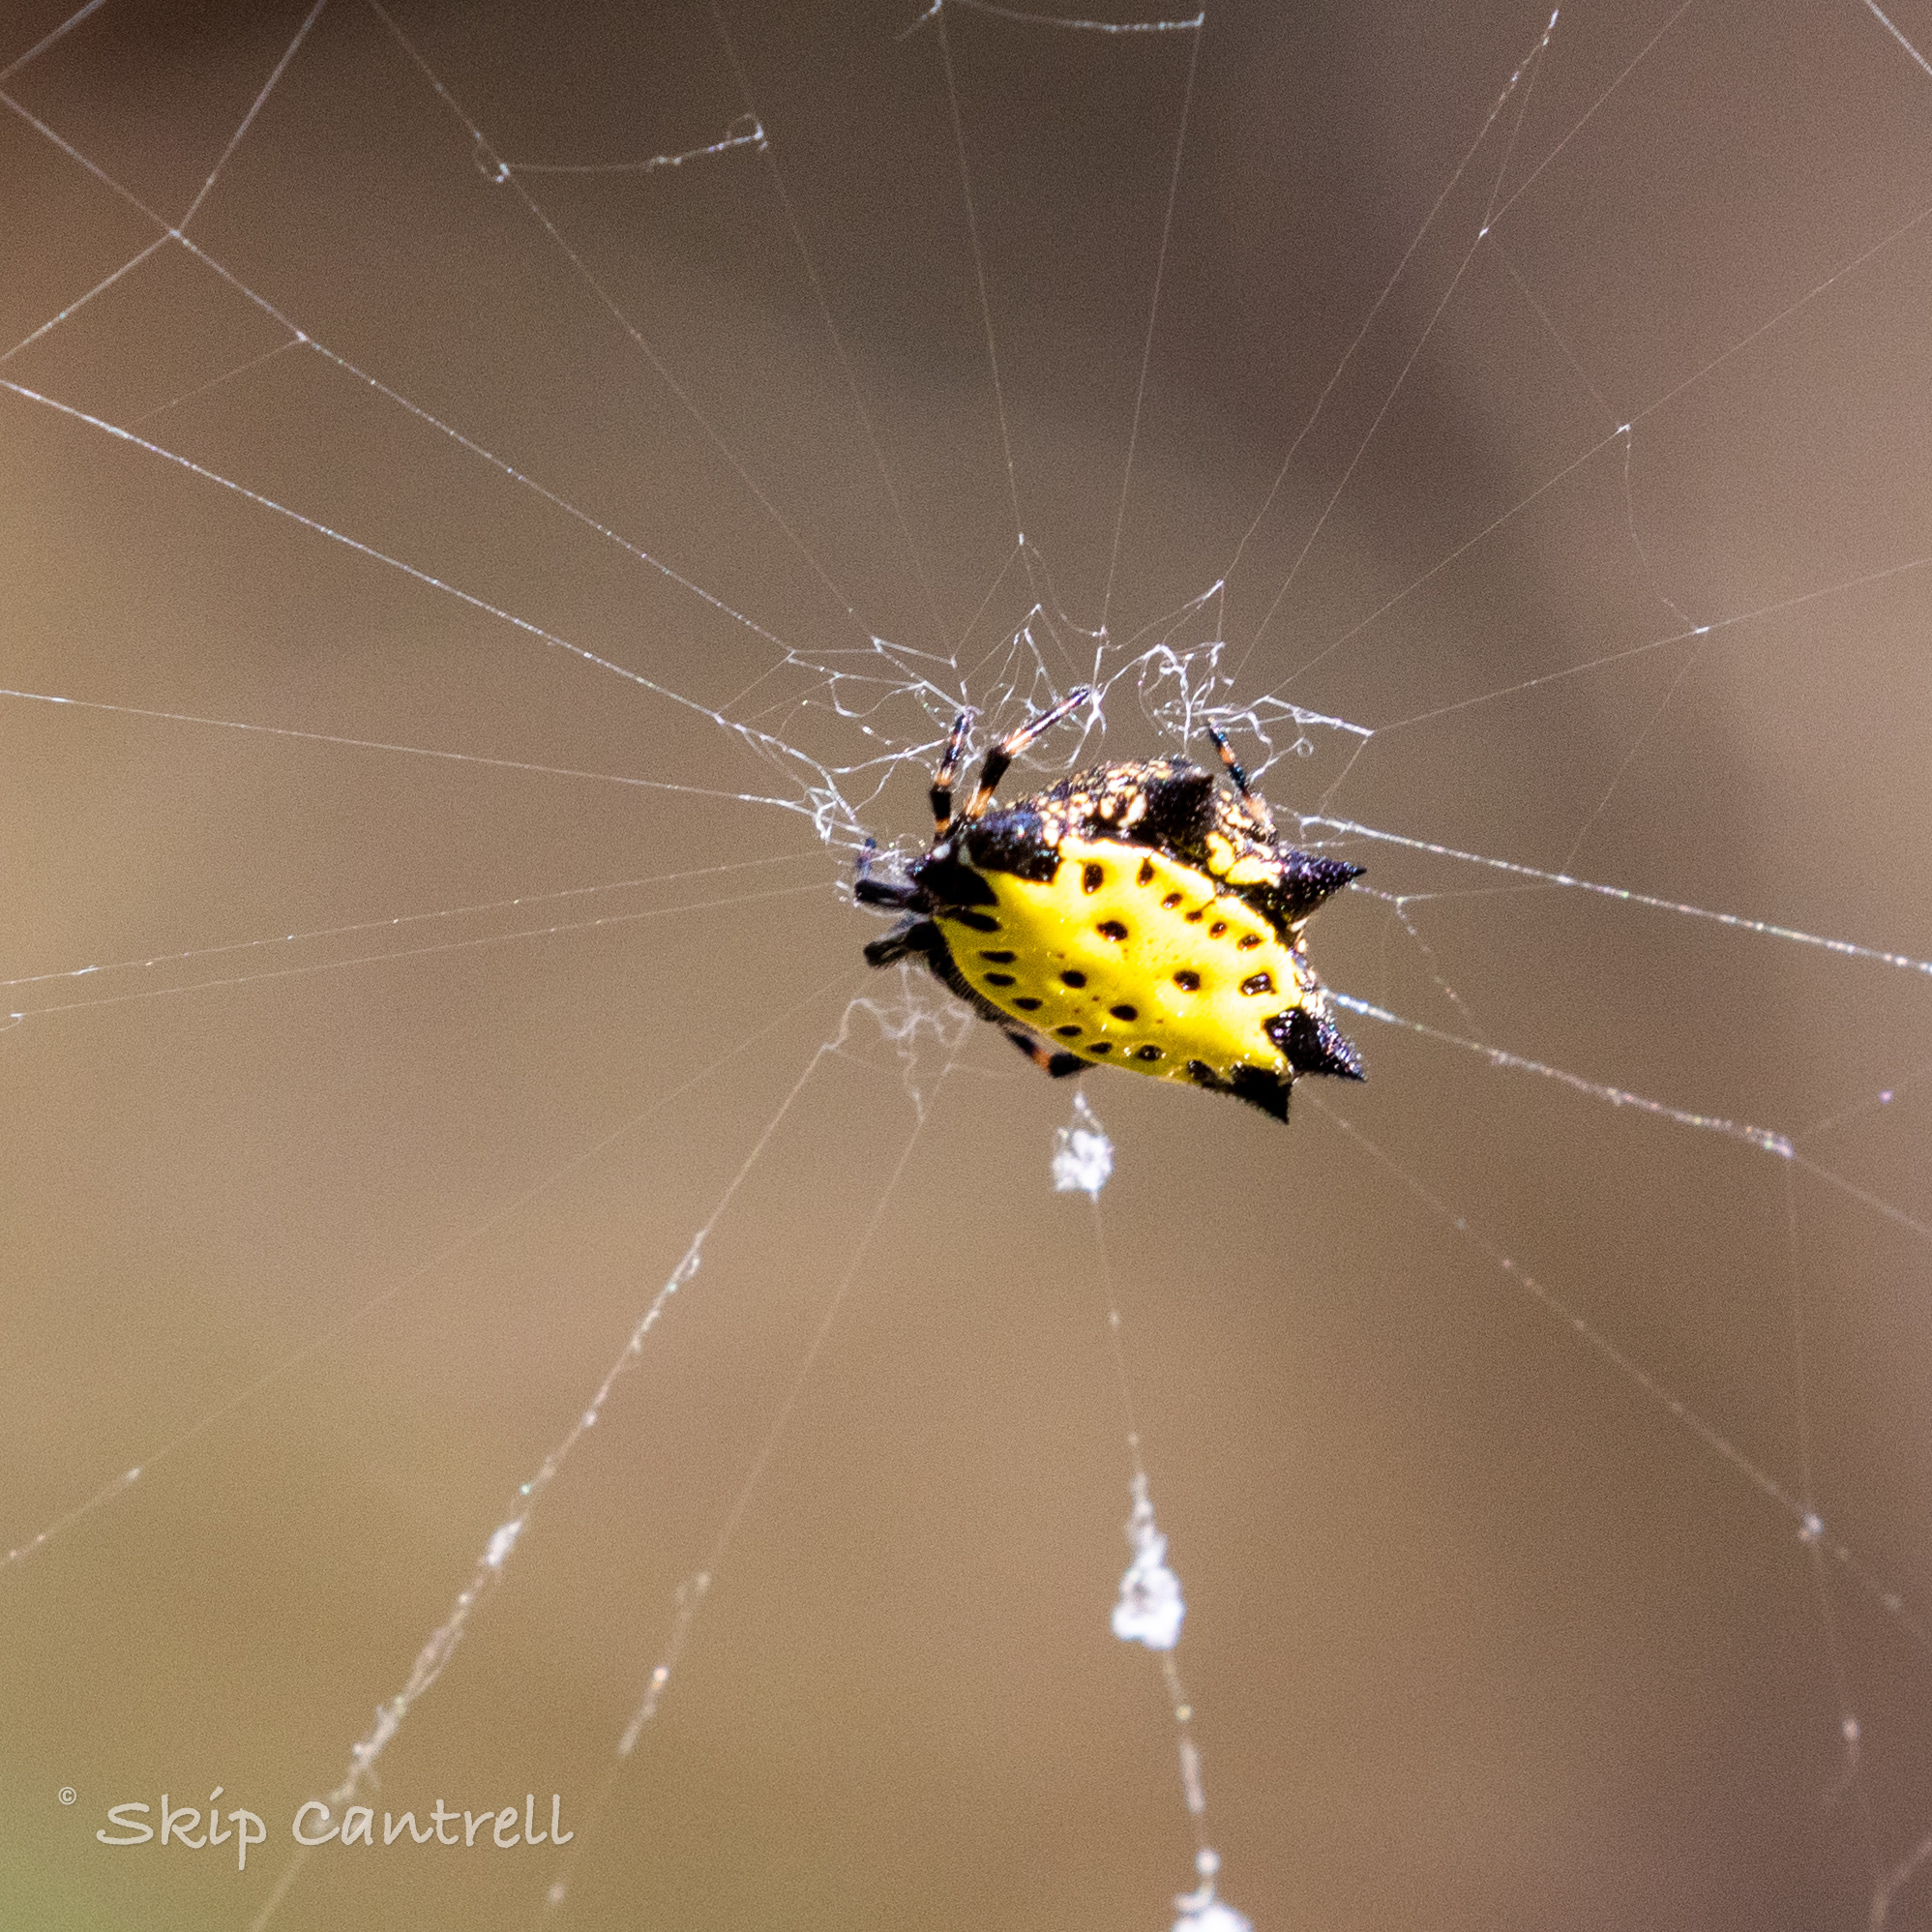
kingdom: Animalia
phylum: Arthropoda
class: Arachnida
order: Araneae
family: Araneidae
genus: Gasteracantha
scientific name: Gasteracantha cancriformis
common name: Orb weavers
